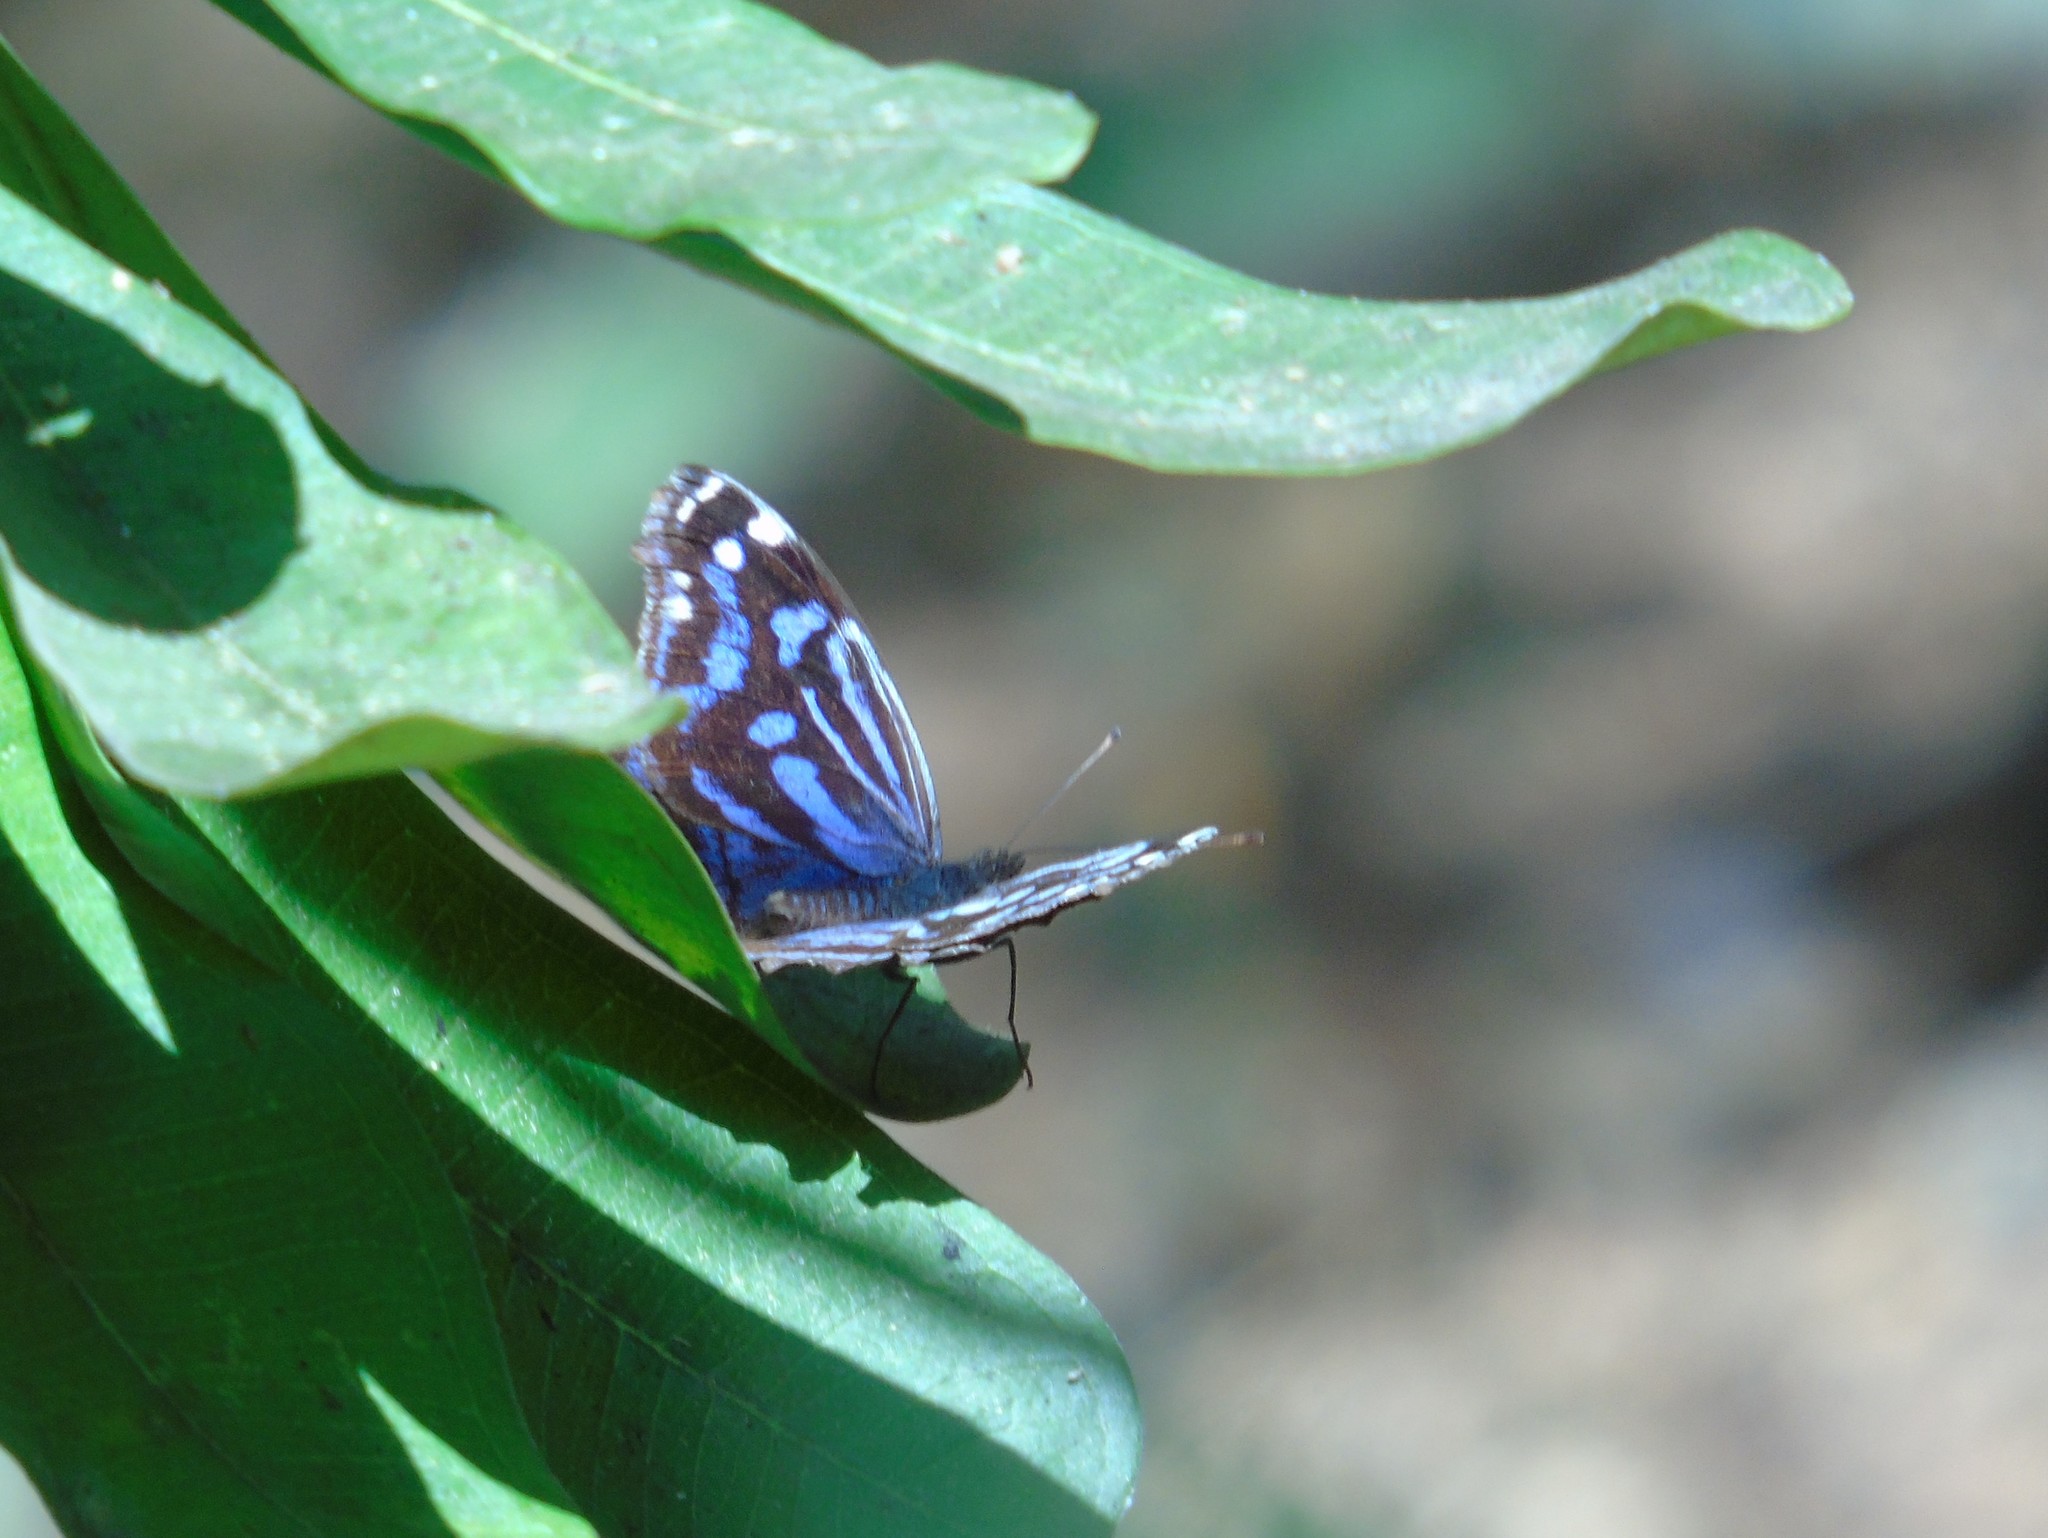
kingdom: Animalia
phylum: Arthropoda
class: Insecta
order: Lepidoptera
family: Nymphalidae
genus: Myscelia
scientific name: Myscelia ethusa
